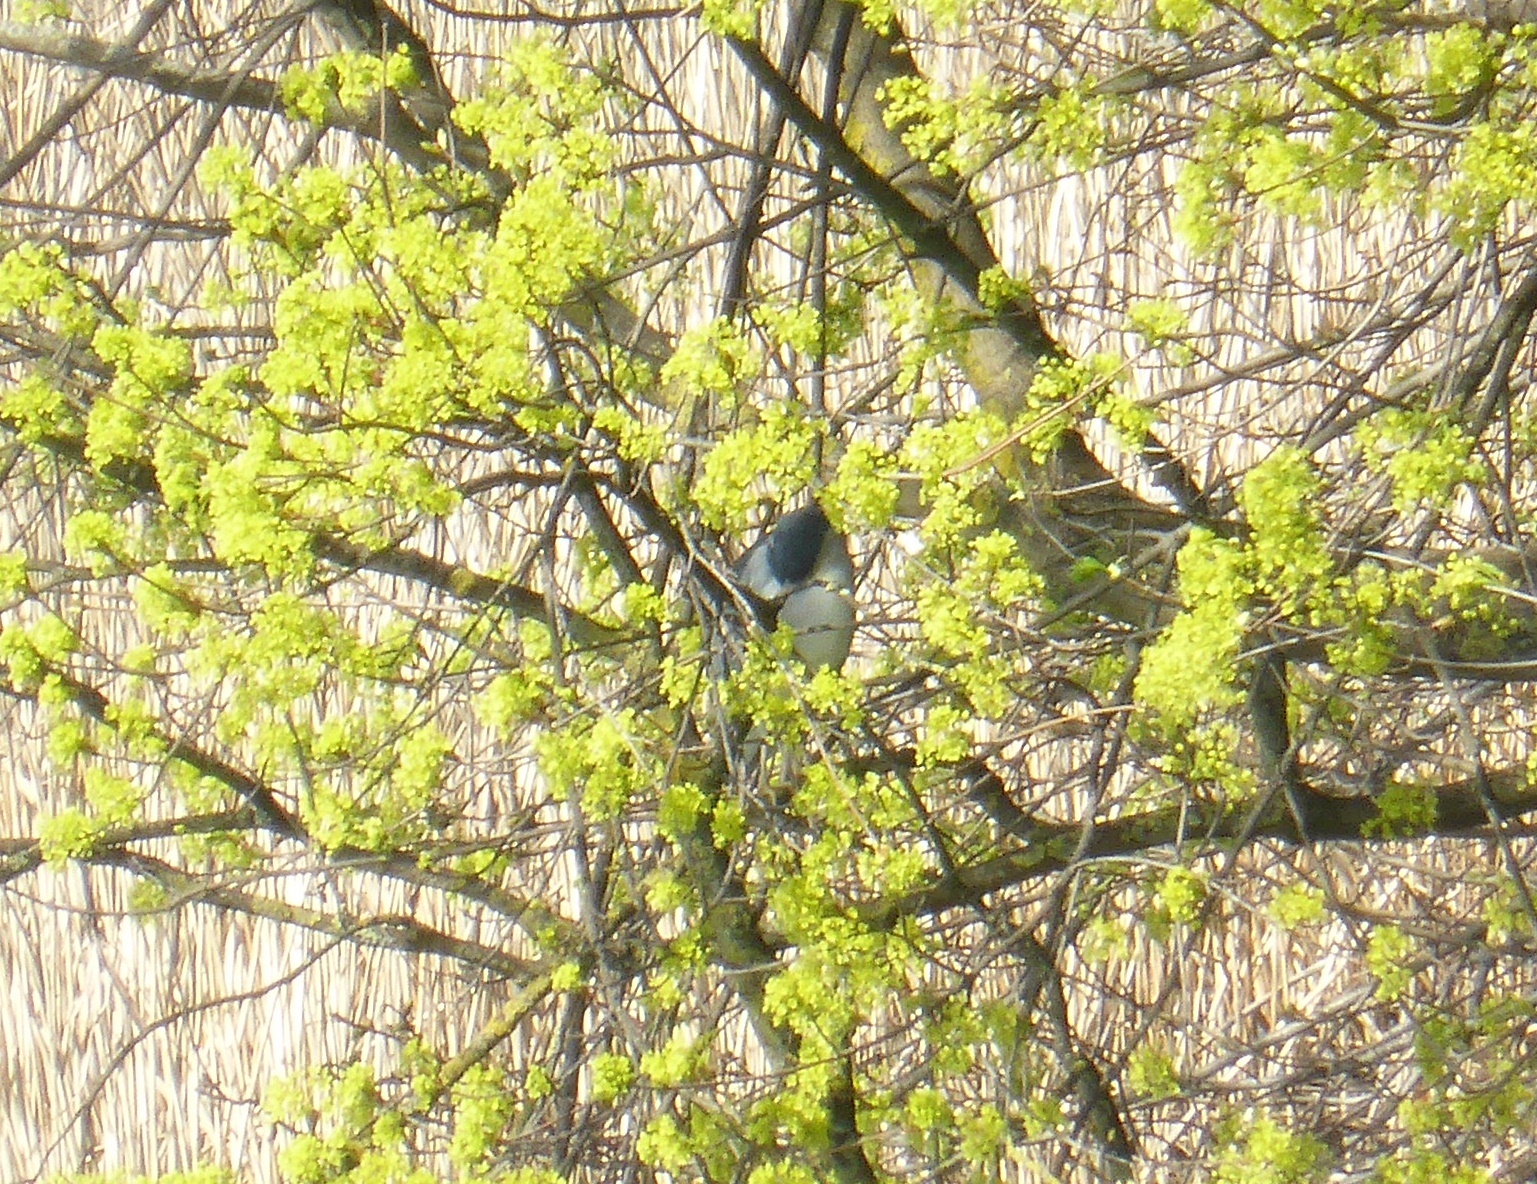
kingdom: Animalia
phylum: Chordata
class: Aves
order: Pelecaniformes
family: Ardeidae
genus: Nycticorax
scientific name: Nycticorax nycticorax
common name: Black-crowned night heron
